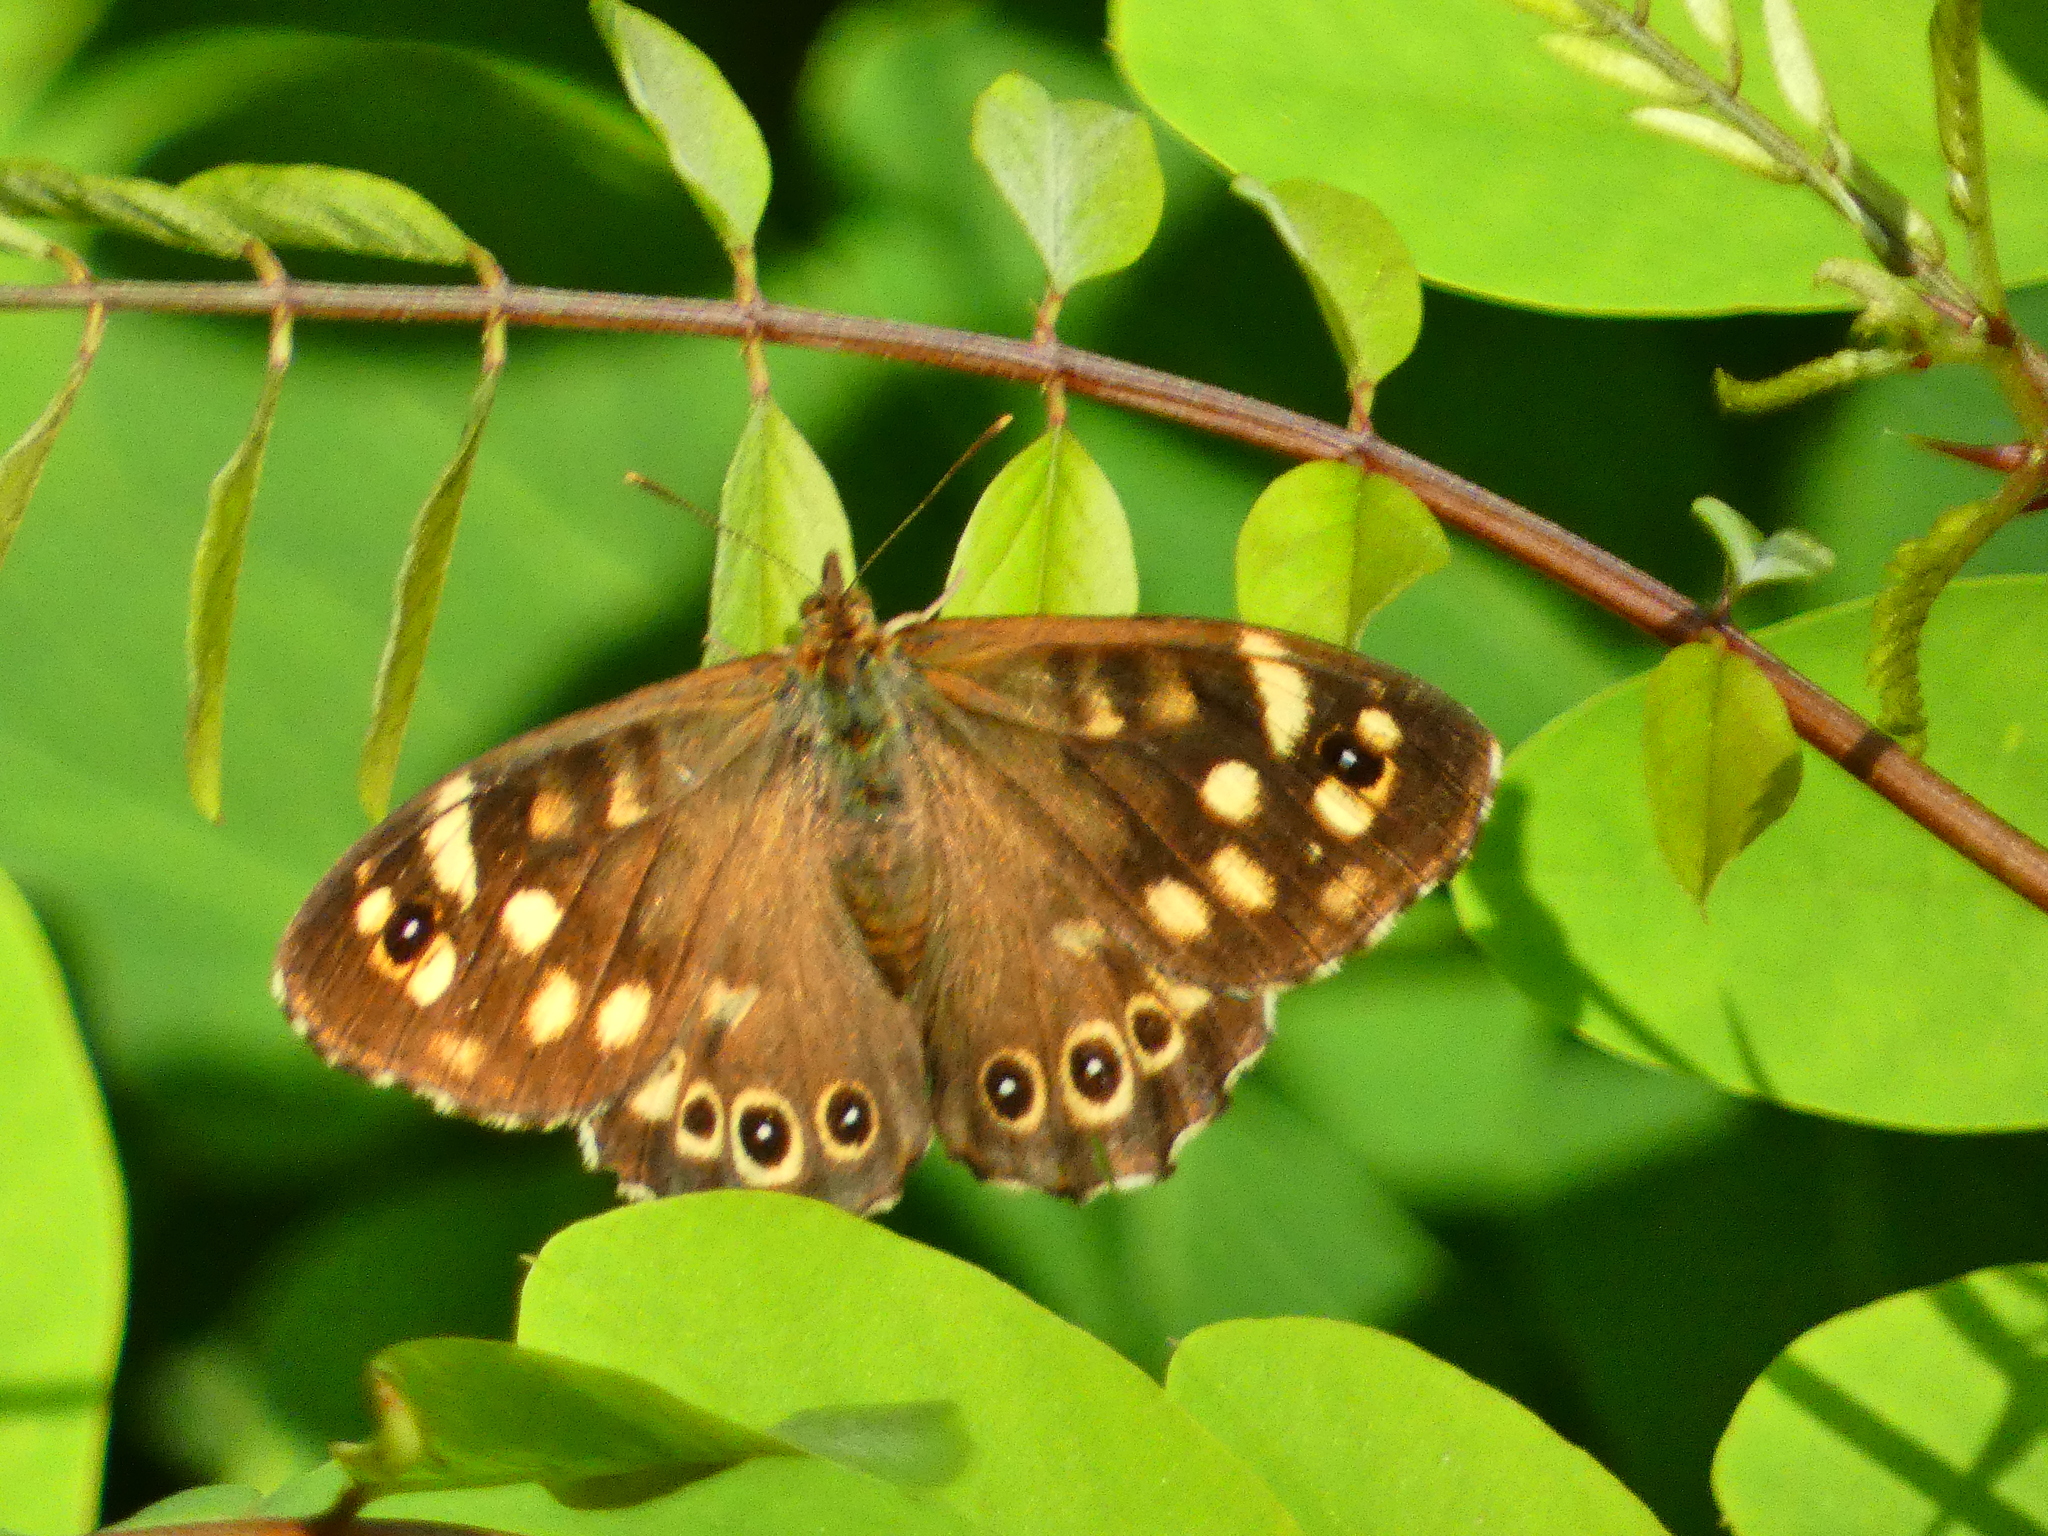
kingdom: Animalia
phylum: Arthropoda
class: Insecta
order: Lepidoptera
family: Nymphalidae
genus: Pararge
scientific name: Pararge aegeria
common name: Speckled wood
